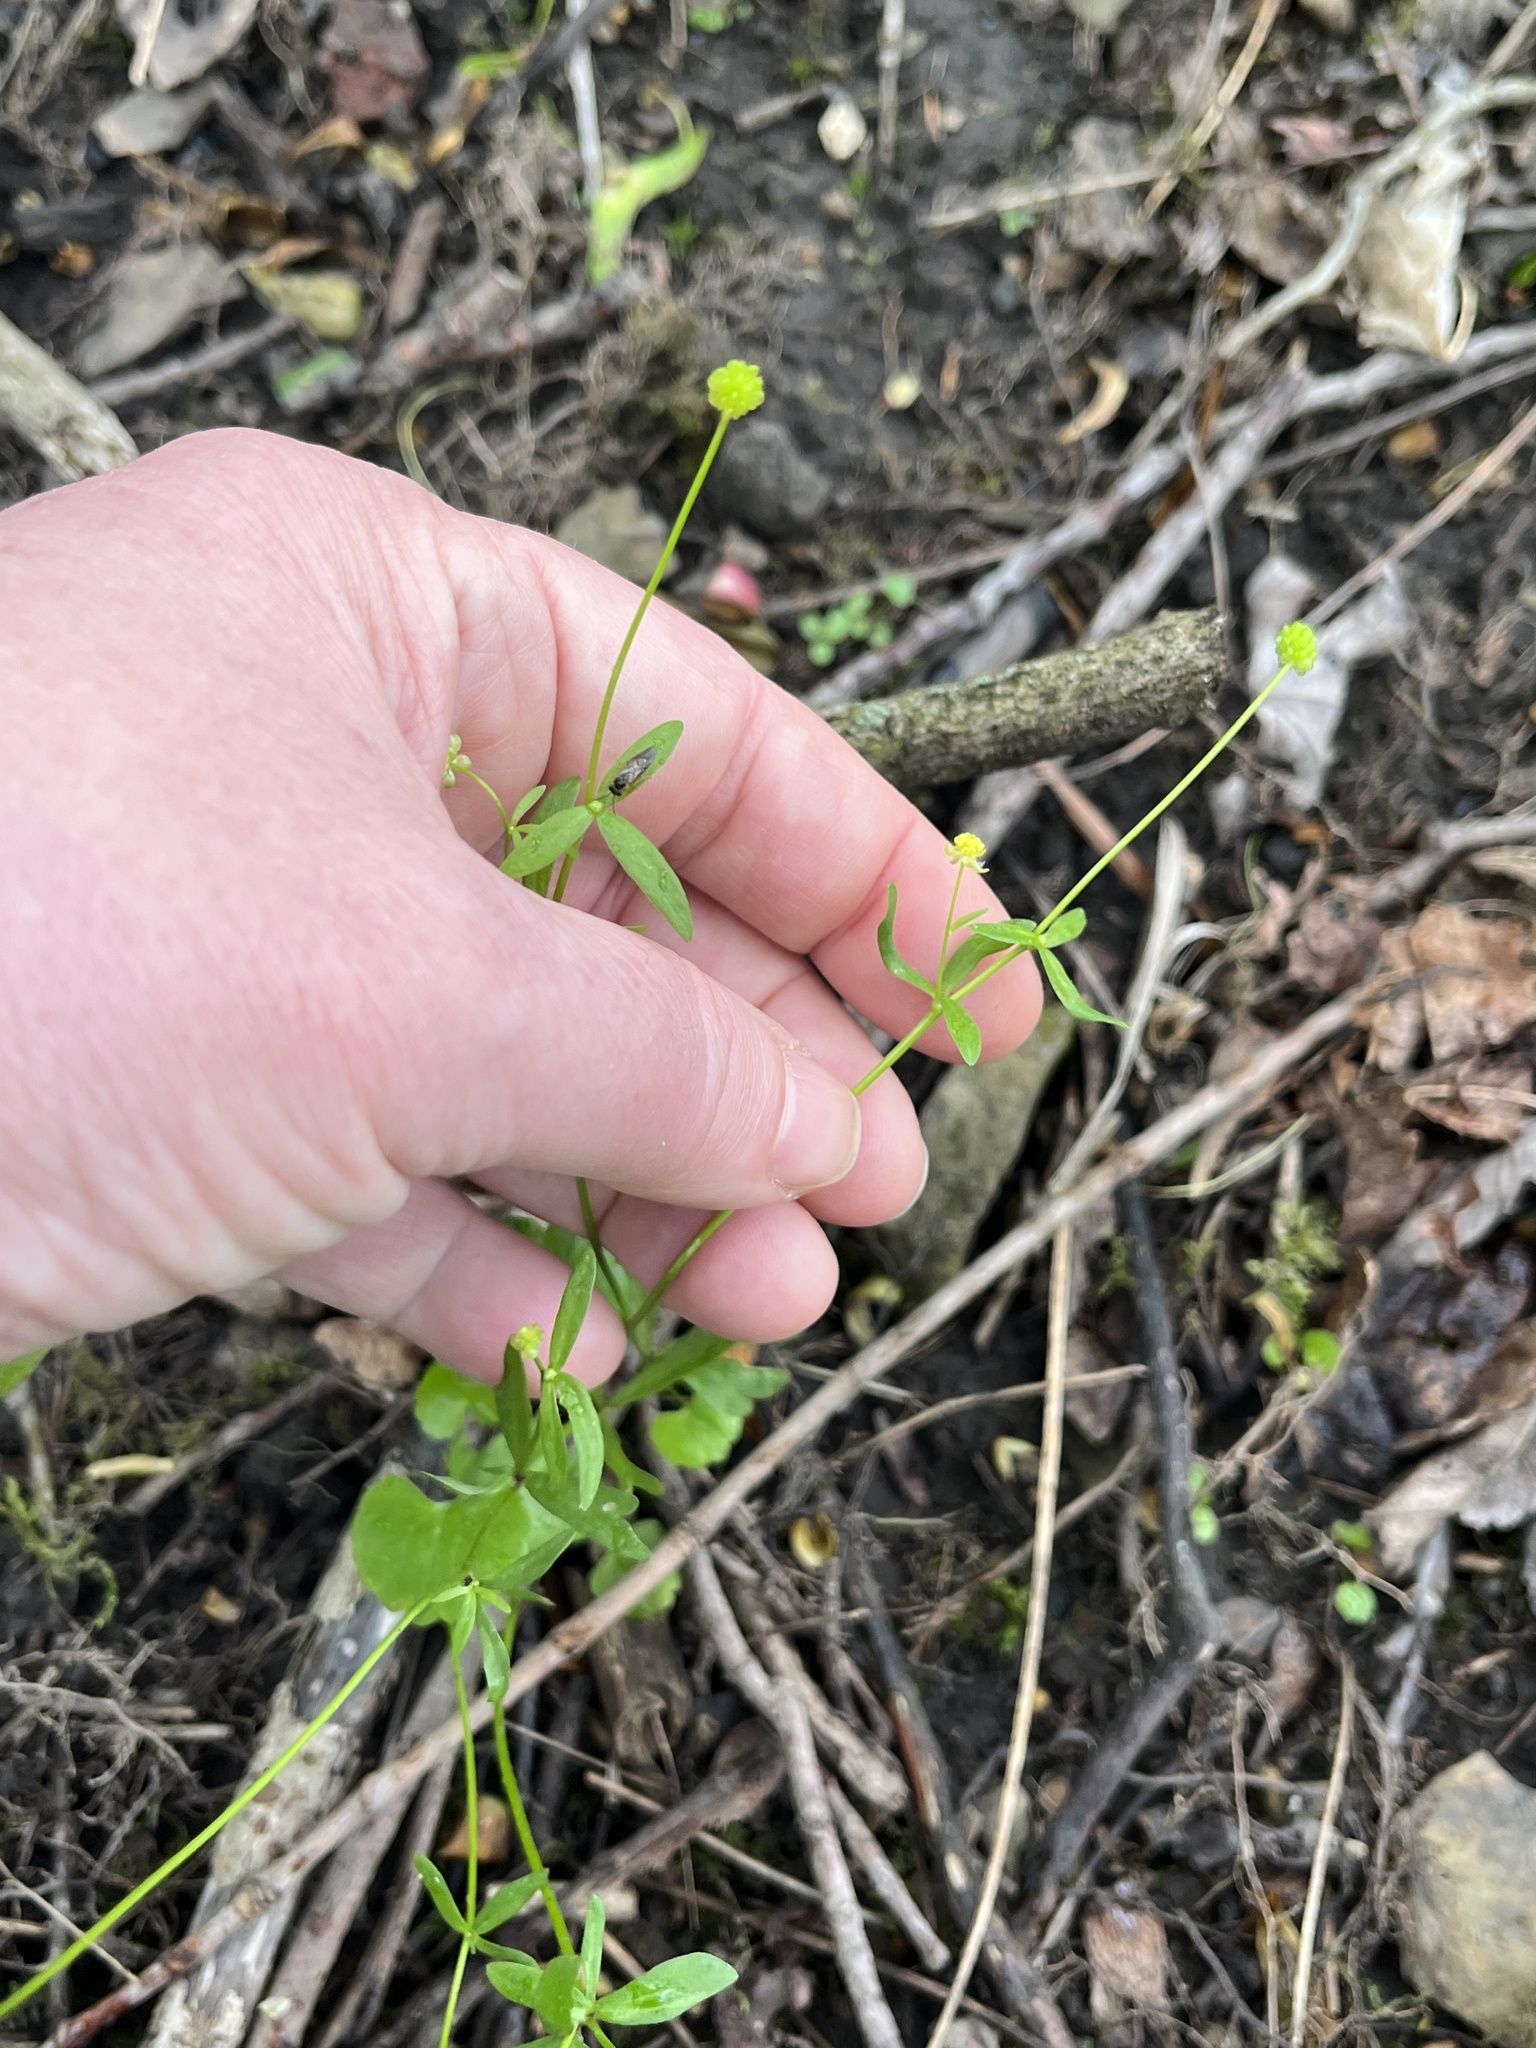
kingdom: Plantae
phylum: Tracheophyta
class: Magnoliopsida
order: Ranunculales
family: Ranunculaceae
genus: Ranunculus
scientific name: Ranunculus abortivus
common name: Early wood buttercup
